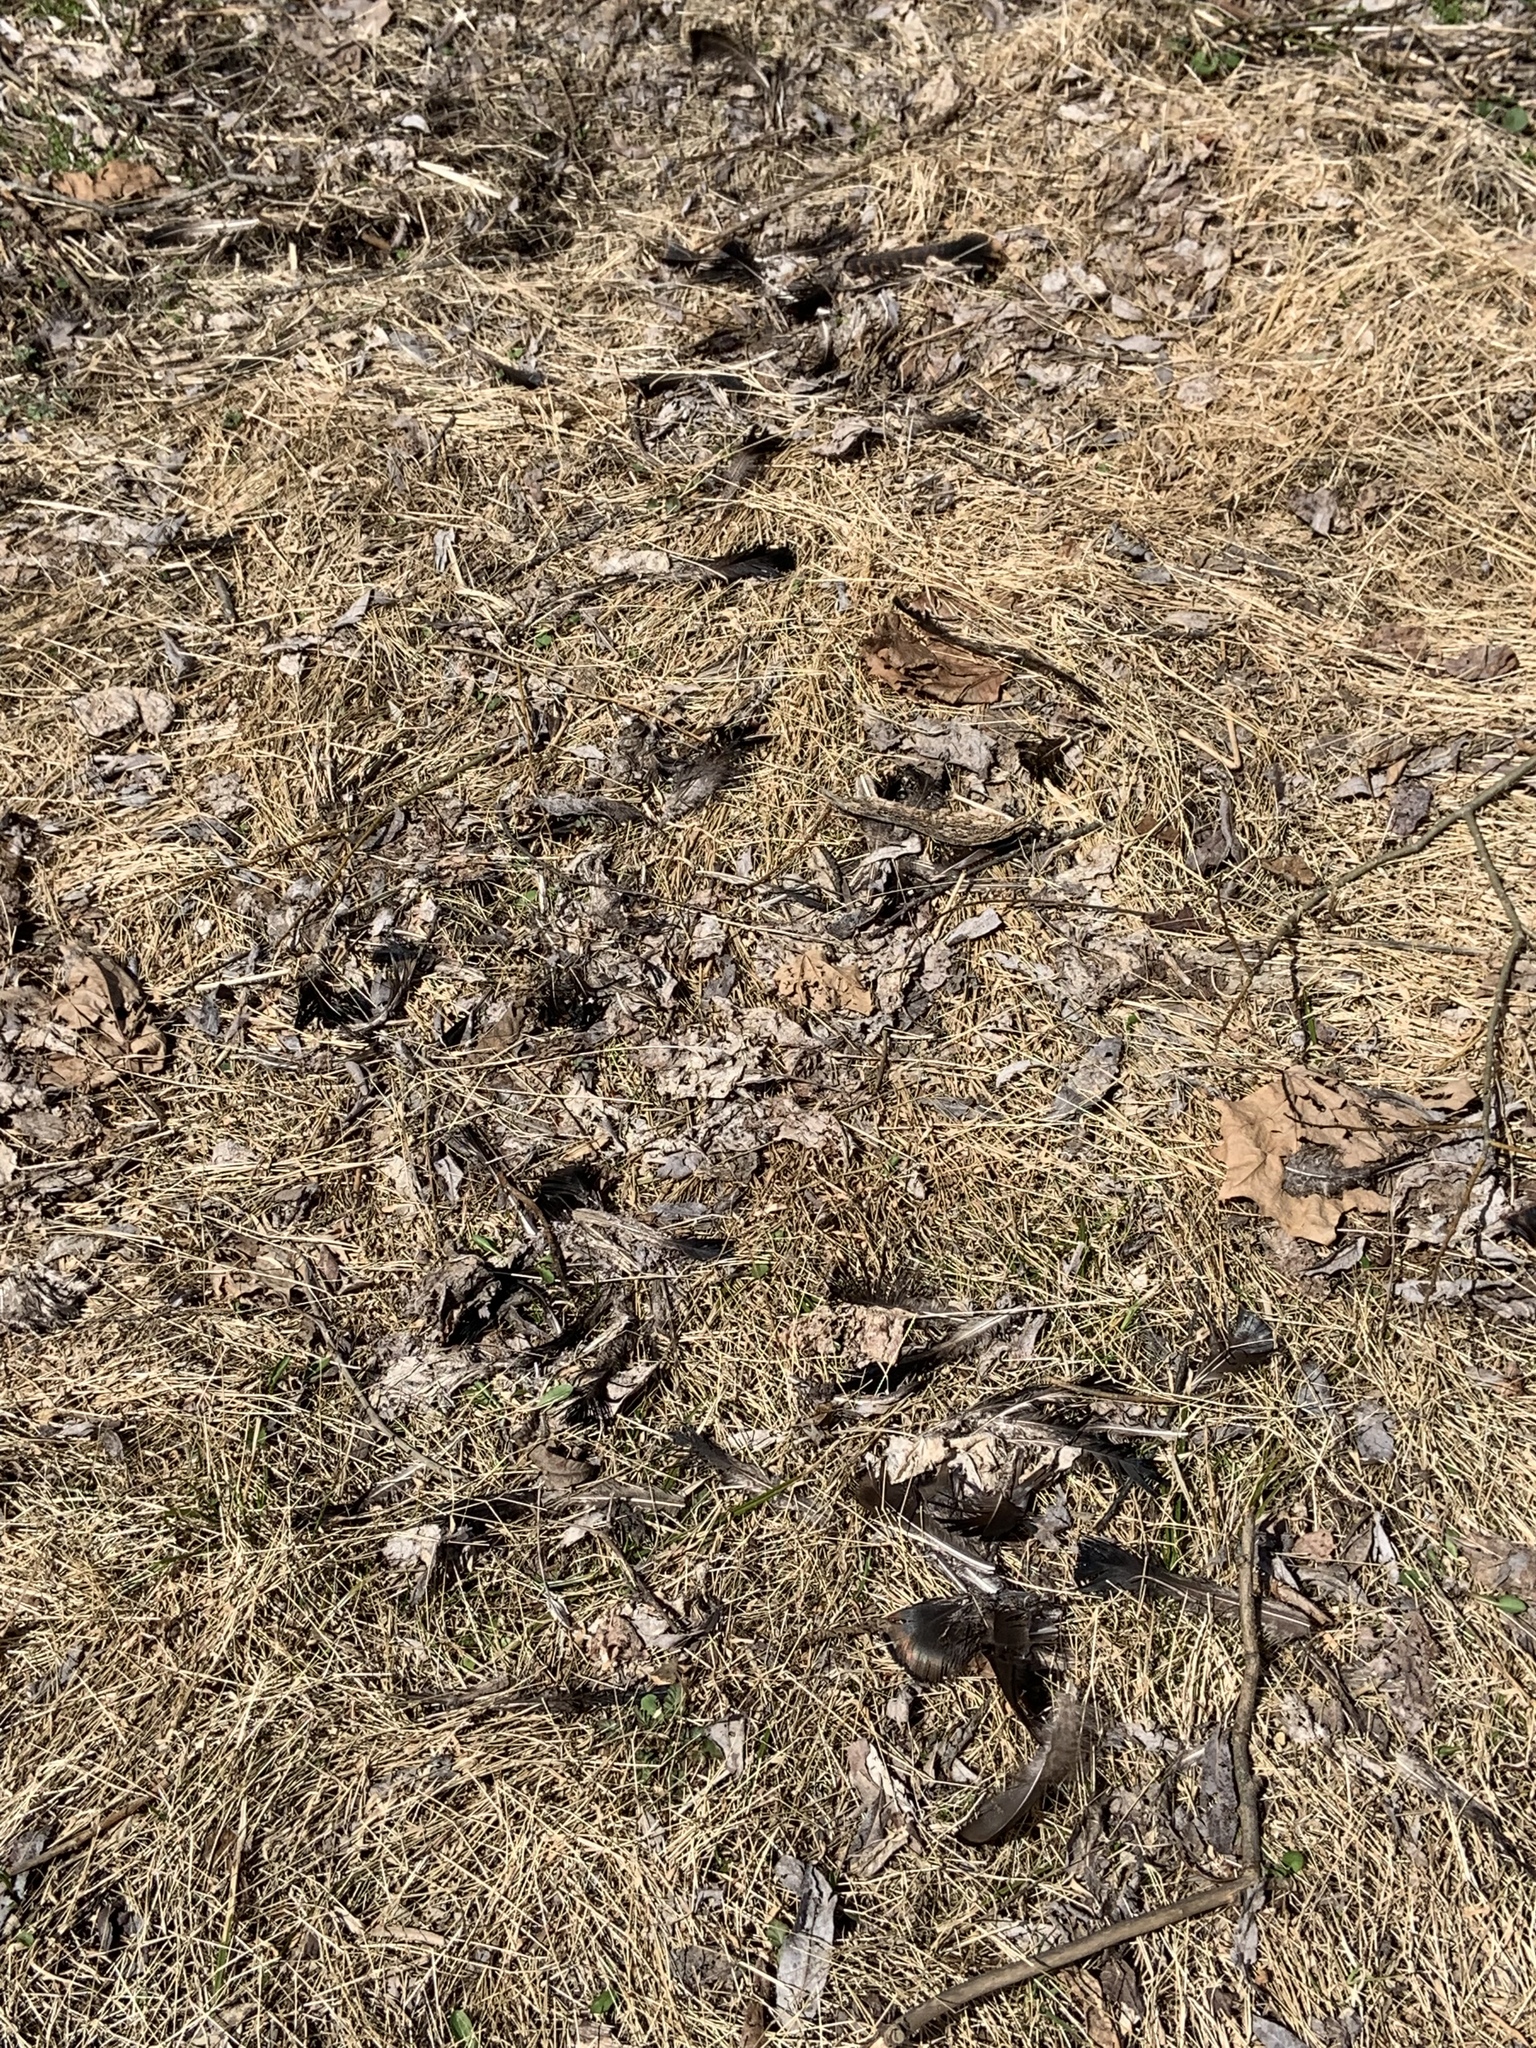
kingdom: Animalia
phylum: Chordata
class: Aves
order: Galliformes
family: Phasianidae
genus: Meleagris
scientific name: Meleagris gallopavo
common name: Wild turkey
